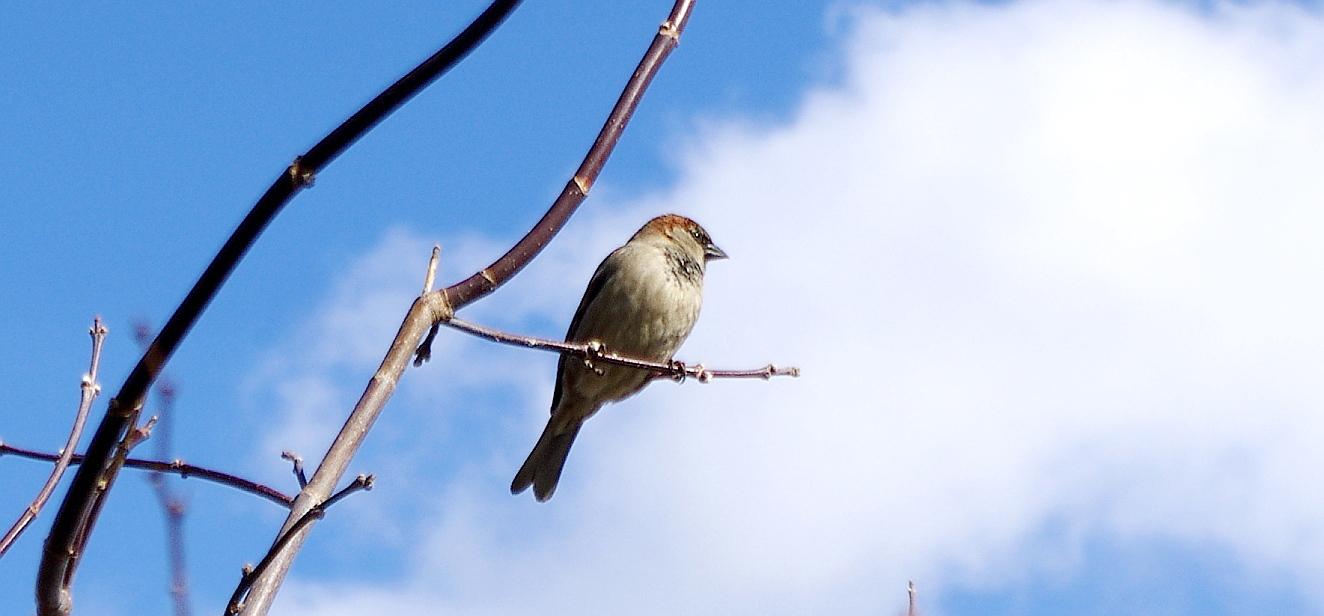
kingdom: Animalia
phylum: Chordata
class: Aves
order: Passeriformes
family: Passeridae
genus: Passer
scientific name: Passer domesticus
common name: House sparrow
